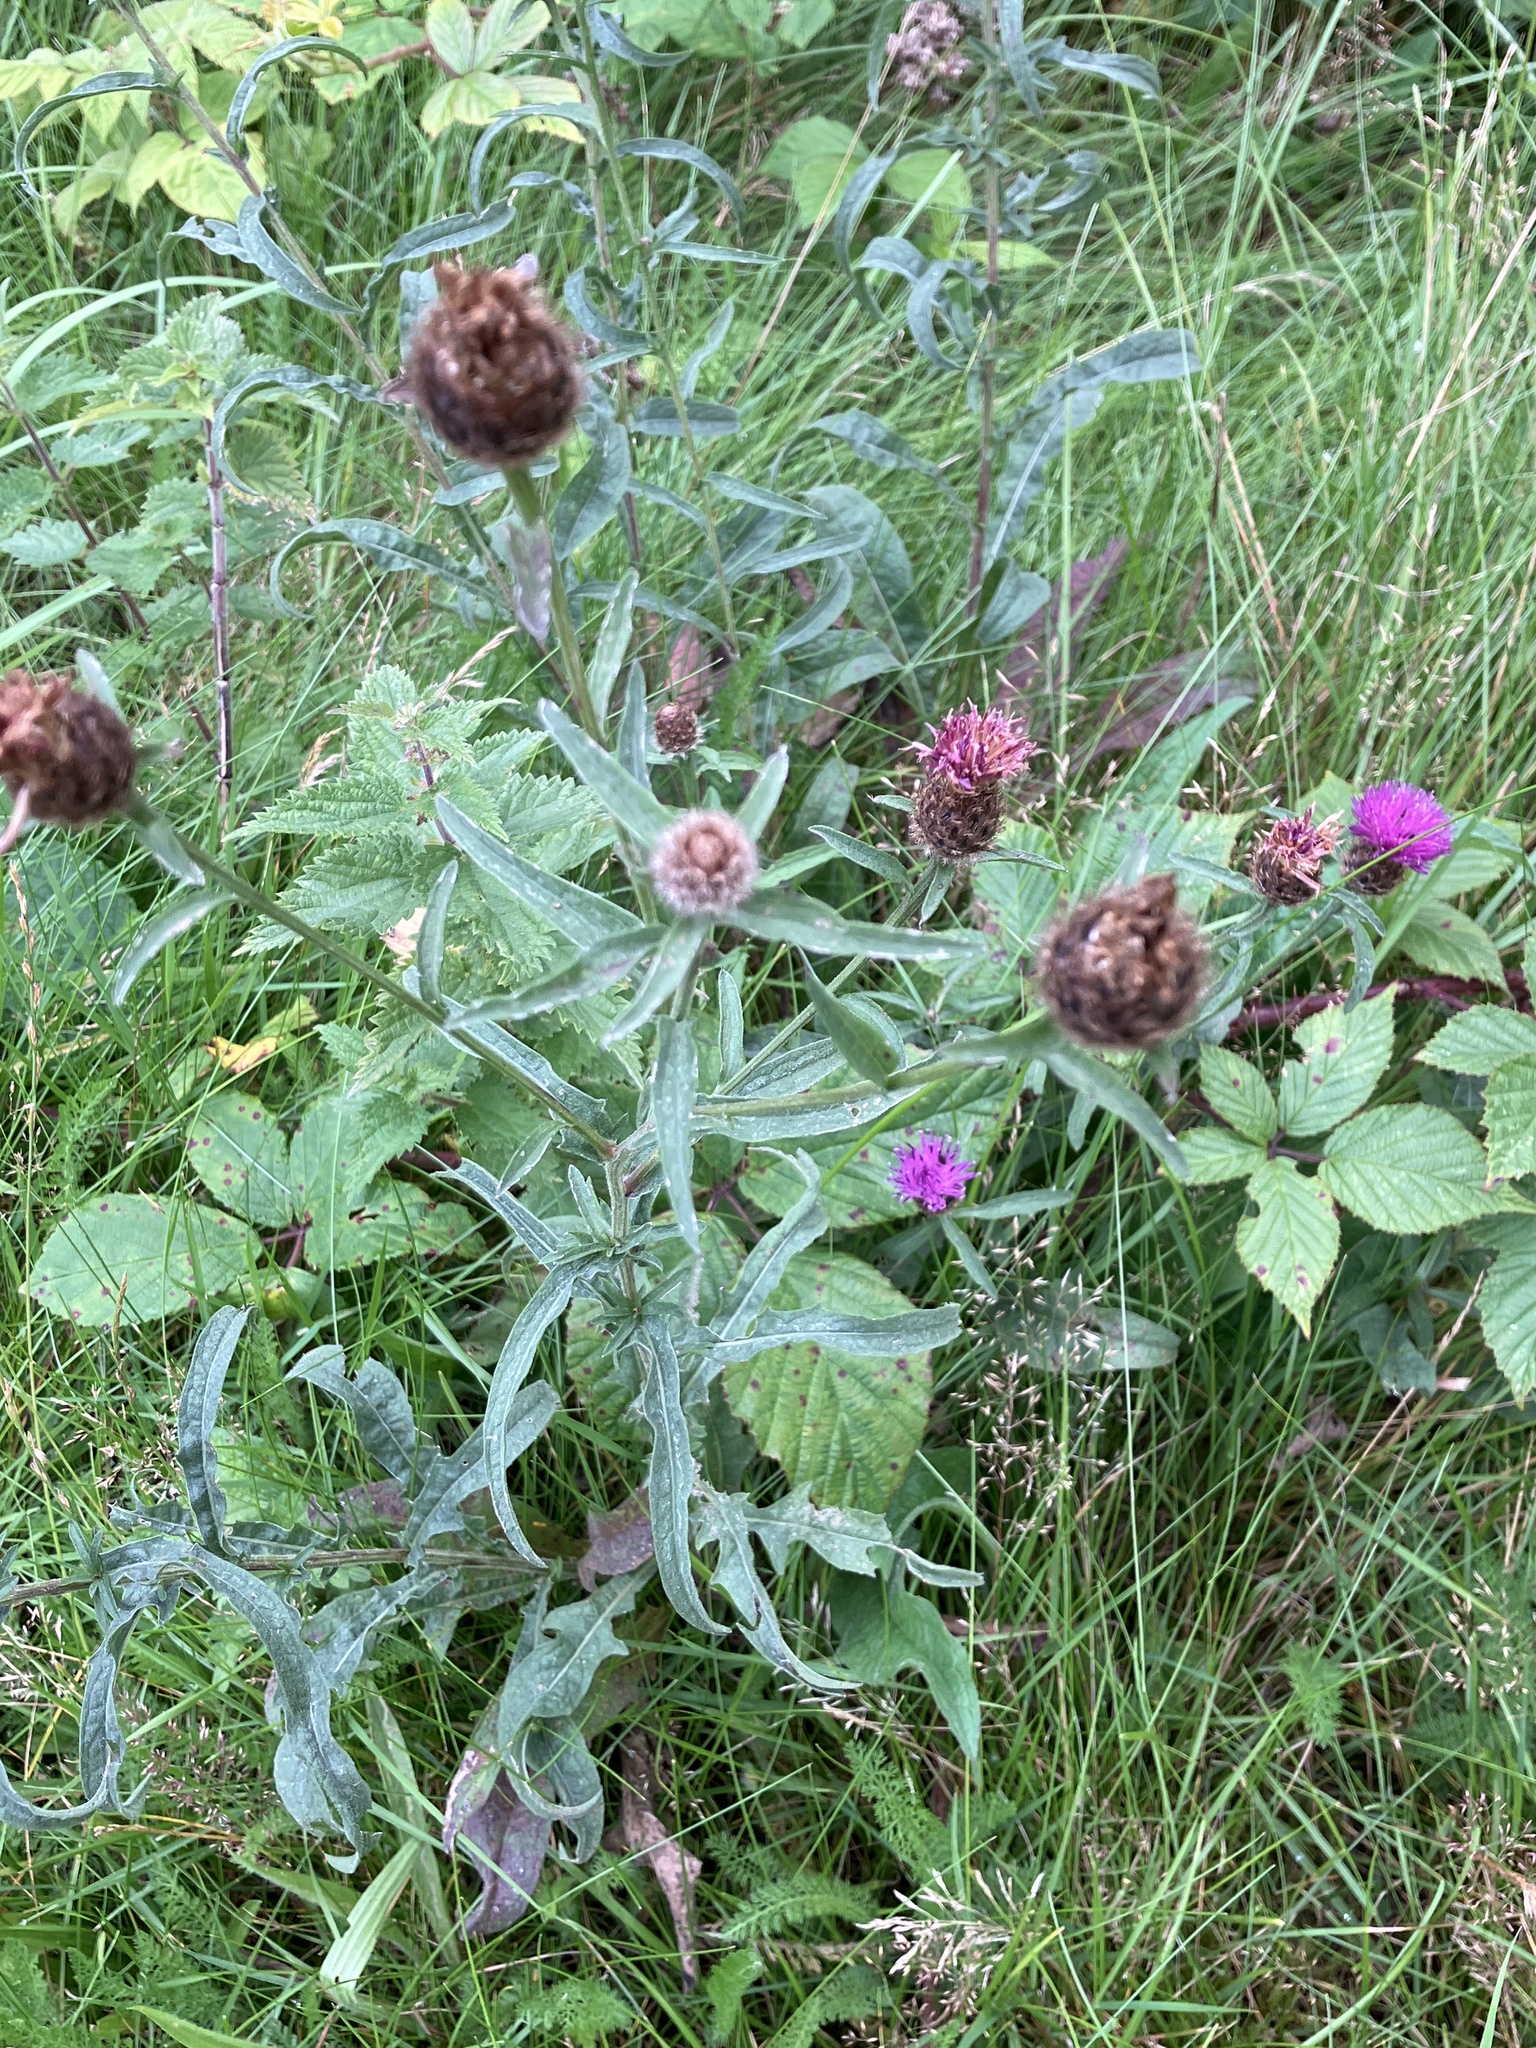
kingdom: Plantae
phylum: Tracheophyta
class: Magnoliopsida
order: Asterales
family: Asteraceae
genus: Centaurea
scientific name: Centaurea nigra
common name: Lesser knapweed
